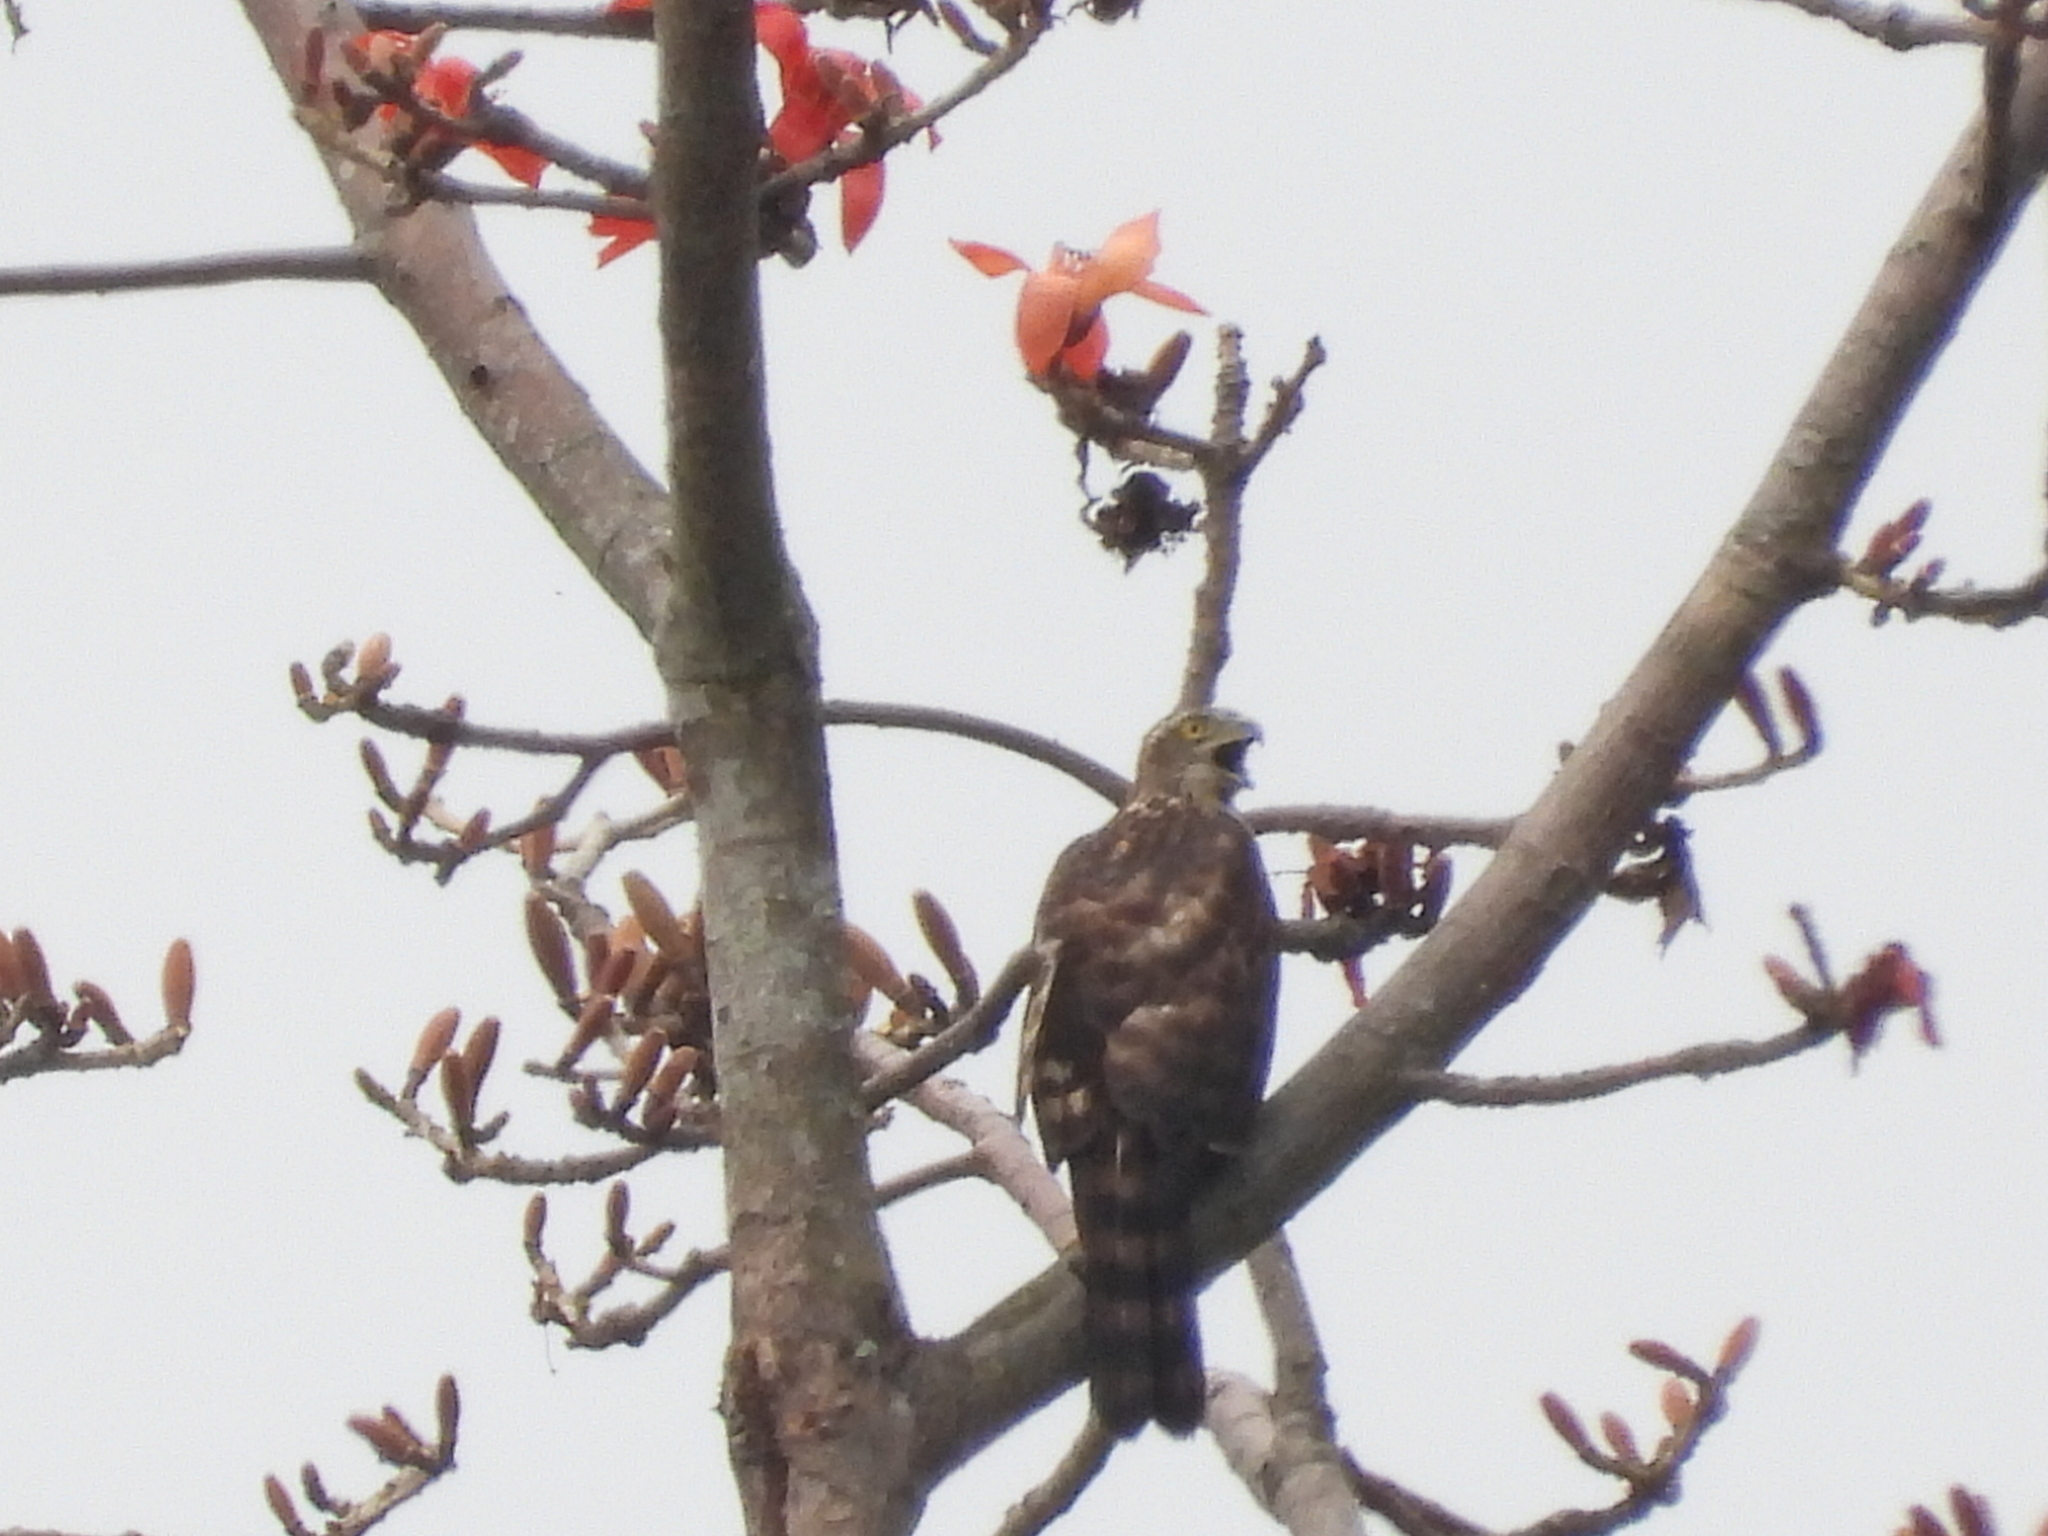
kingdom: Animalia
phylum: Chordata
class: Aves
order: Accipitriformes
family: Accipitridae
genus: Accipiter
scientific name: Accipiter trivirgatus
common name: Crested goshawk
